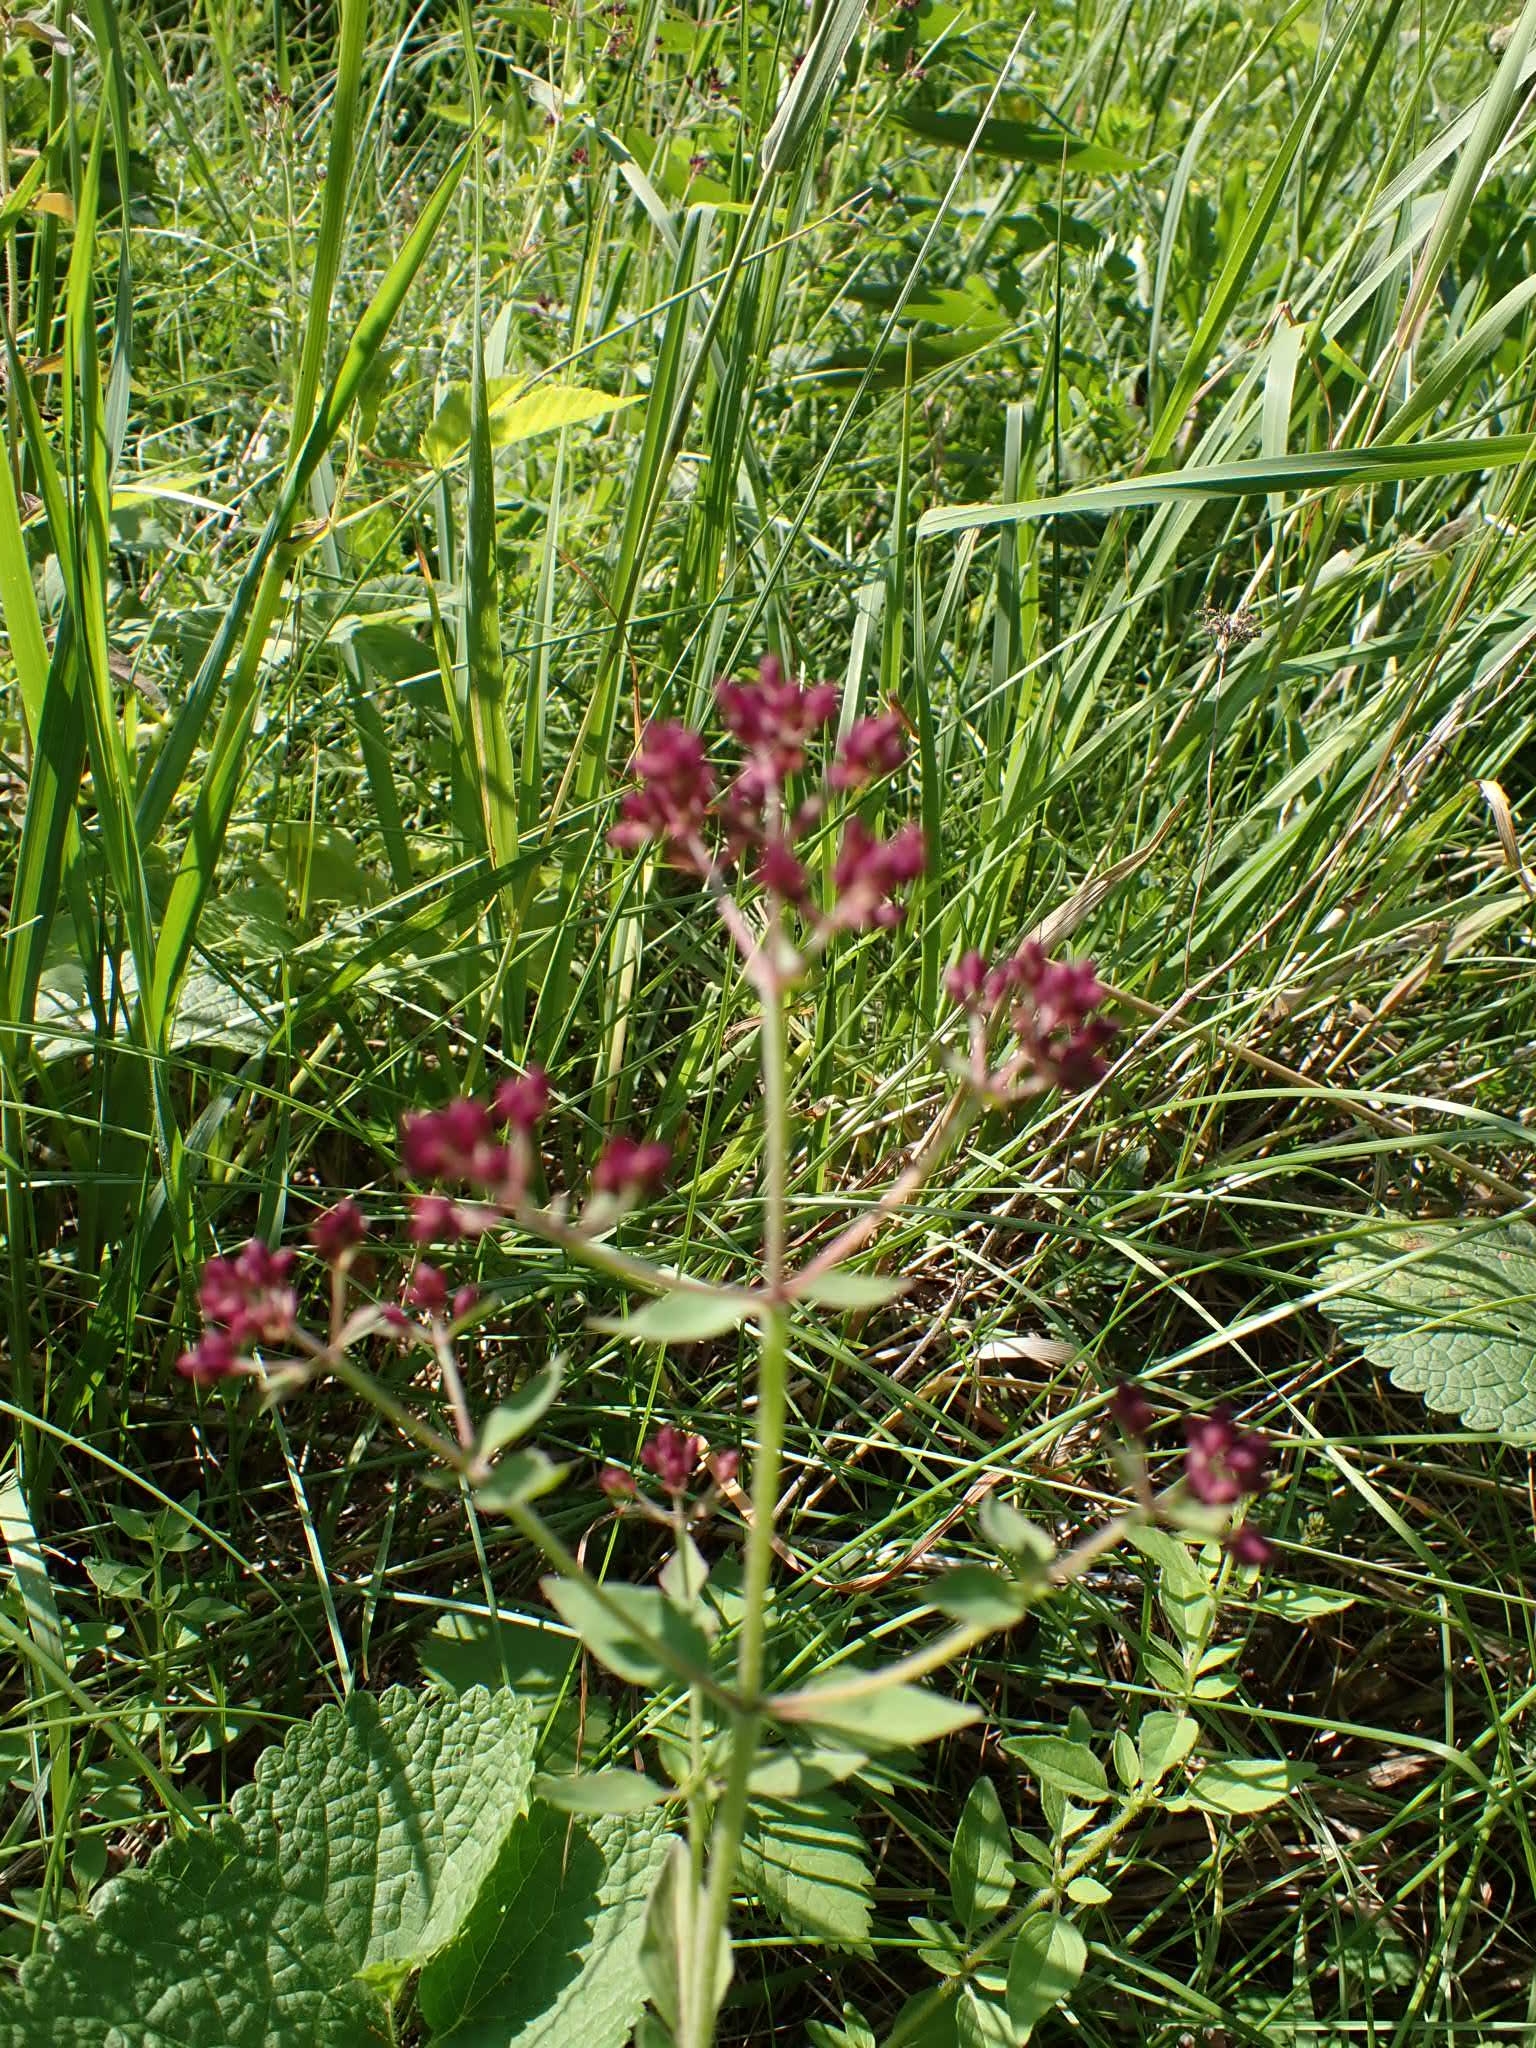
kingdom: Plantae
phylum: Tracheophyta
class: Magnoliopsida
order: Lamiales
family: Lamiaceae
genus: Origanum
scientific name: Origanum vulgare
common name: Wild marjoram
